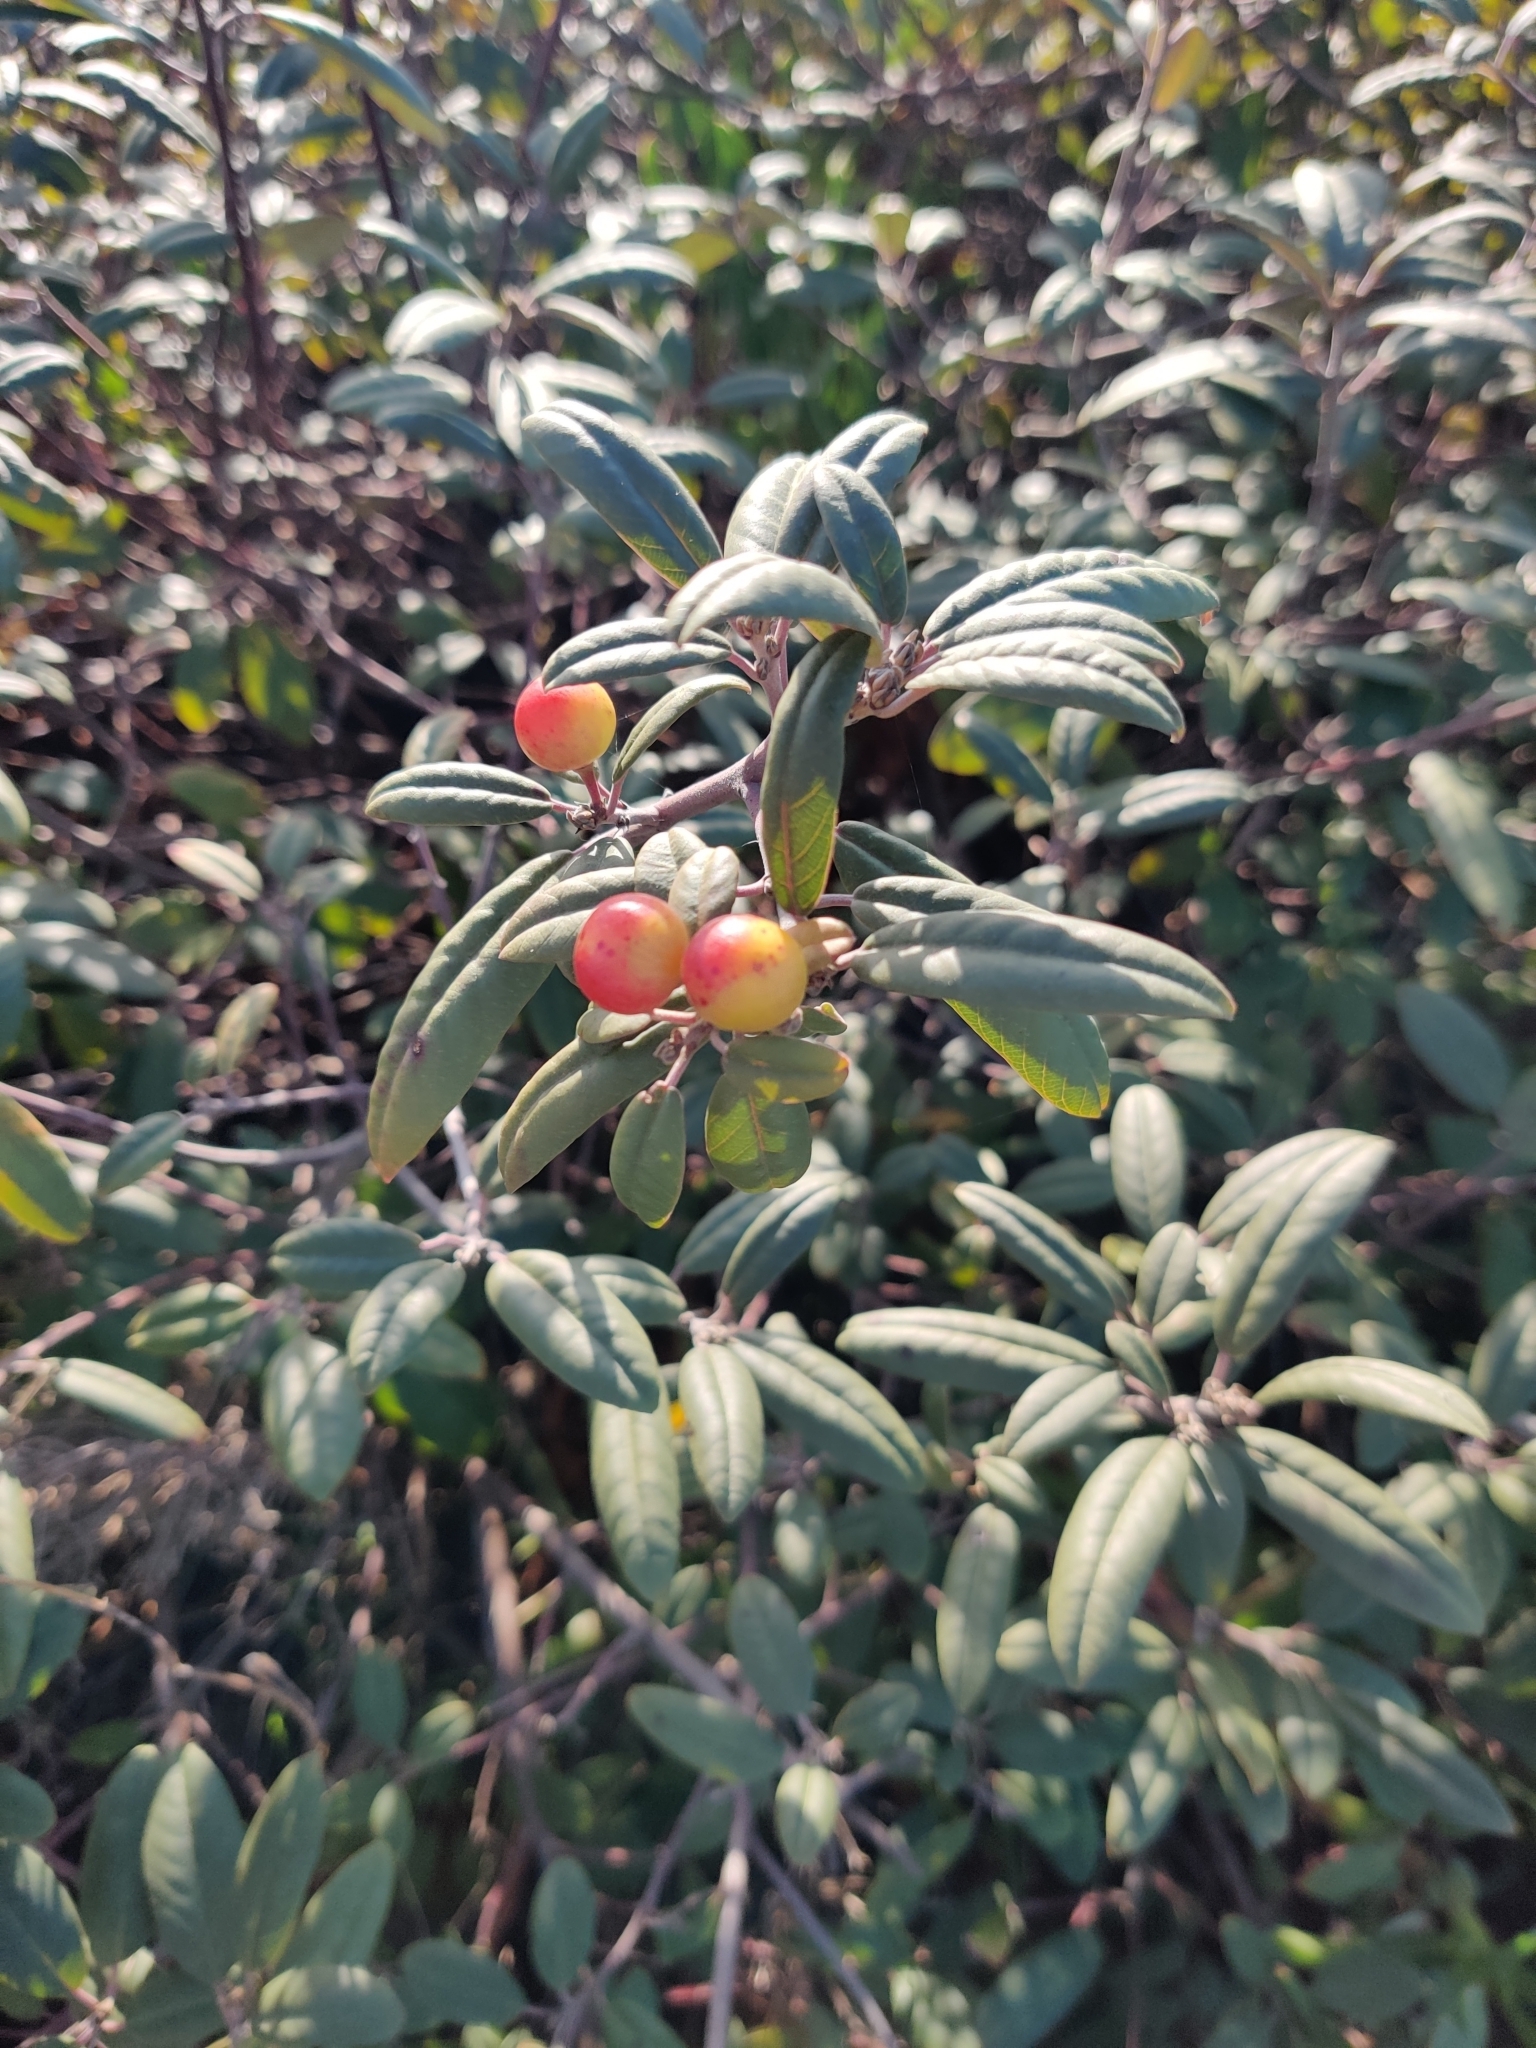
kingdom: Plantae
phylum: Tracheophyta
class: Magnoliopsida
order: Rosales
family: Rhamnaceae
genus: Frangula
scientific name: Frangula californica
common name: California buckthorn
